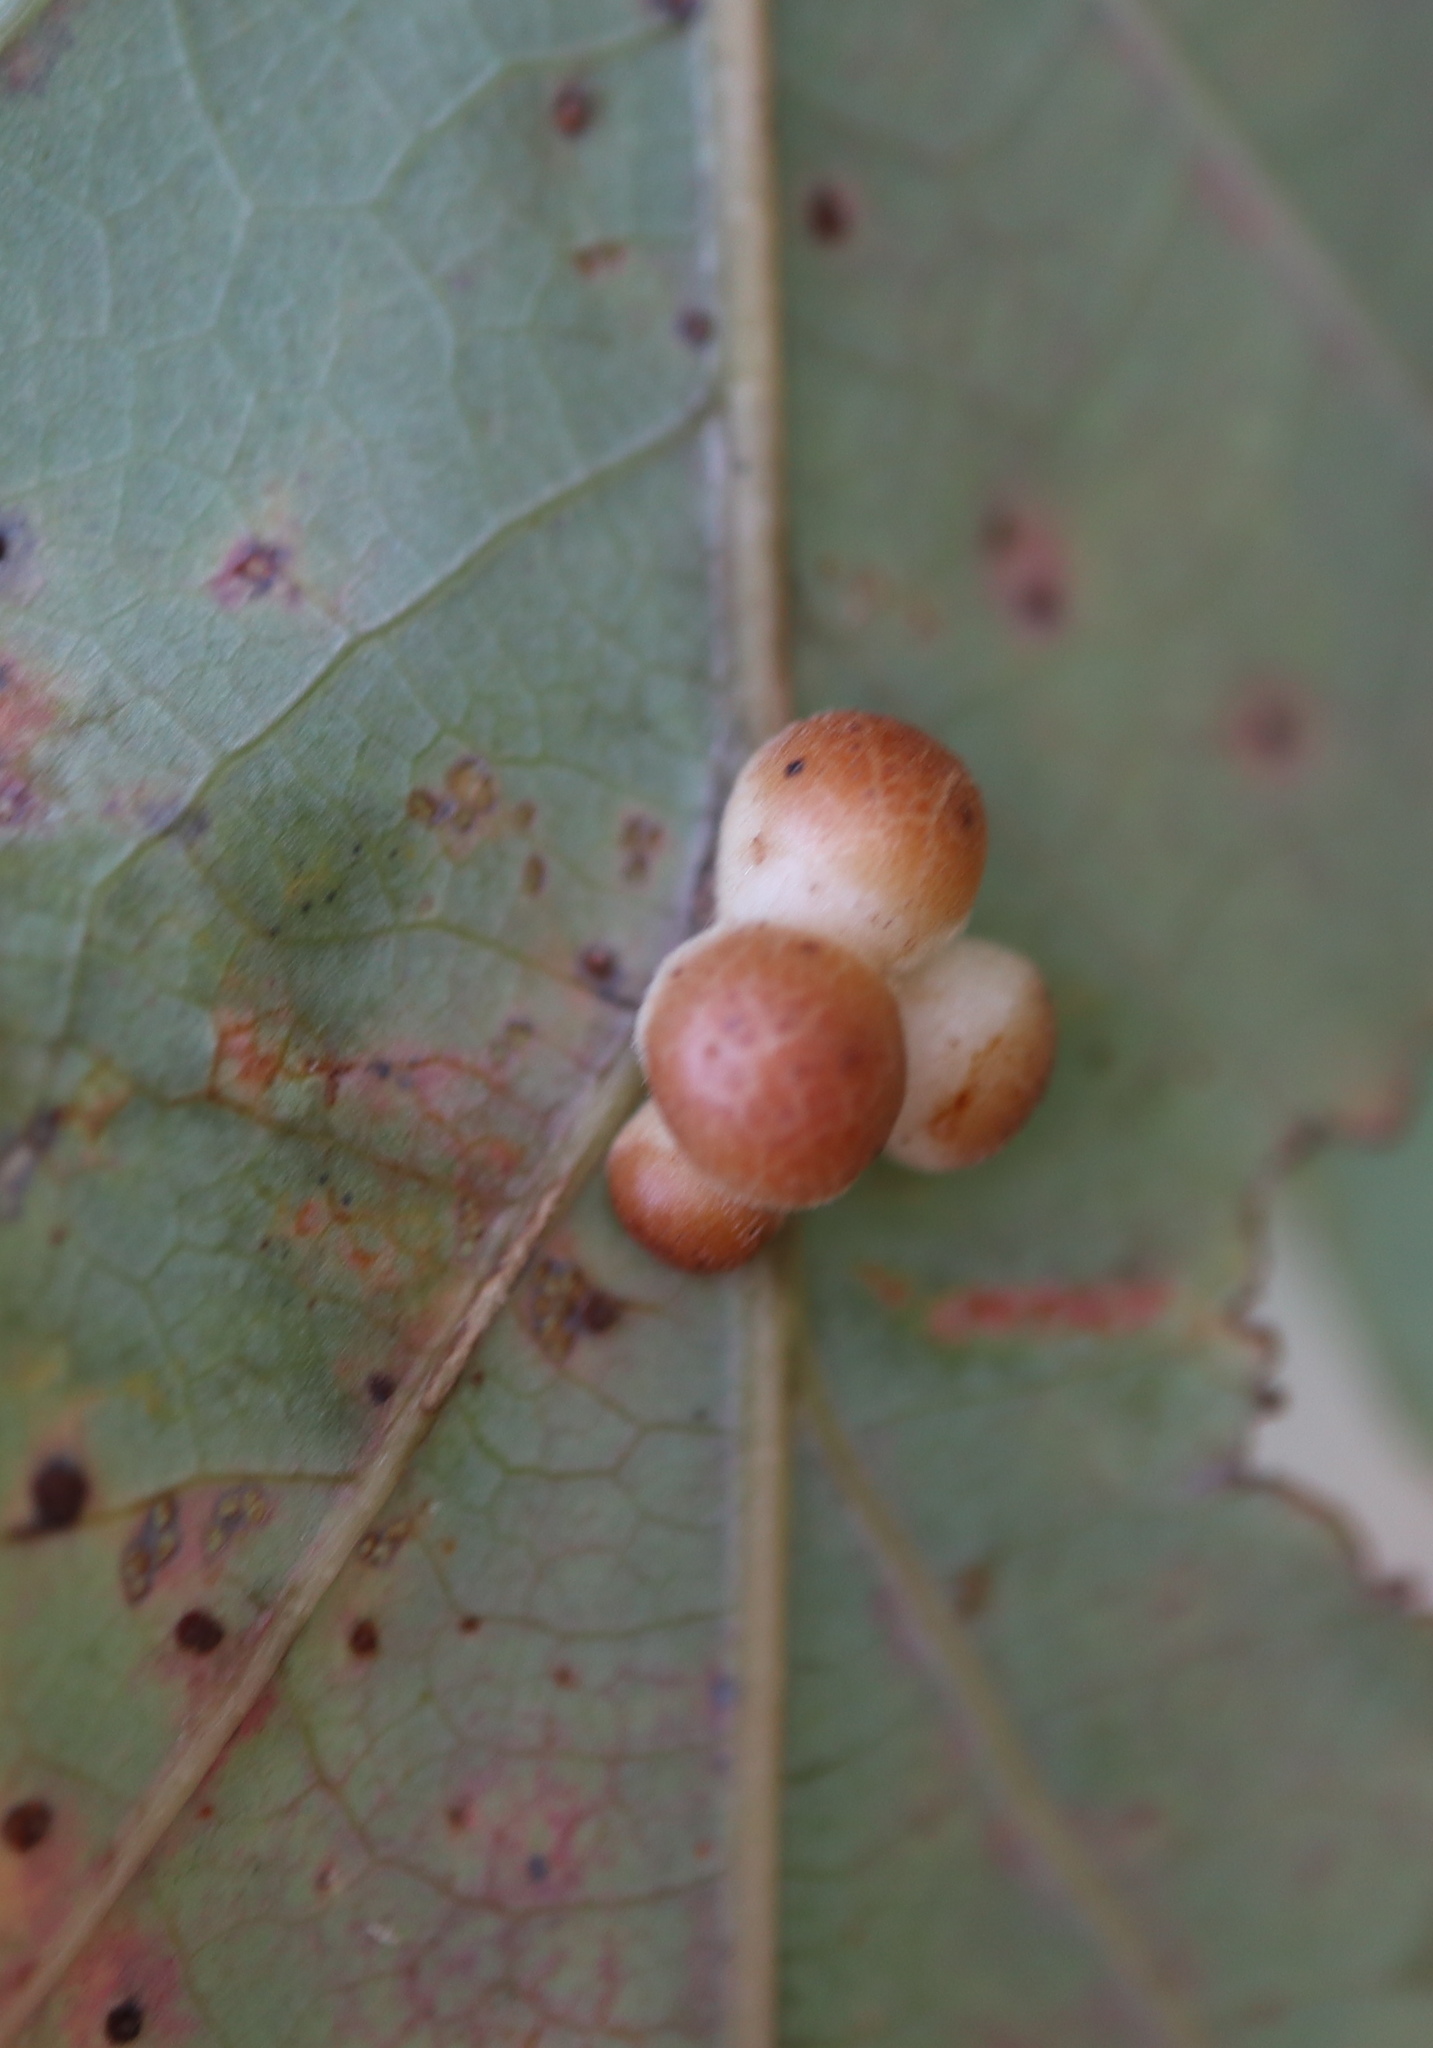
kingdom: Animalia
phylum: Arthropoda
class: Insecta
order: Hymenoptera
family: Cynipidae
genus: Andricus
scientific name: Andricus
